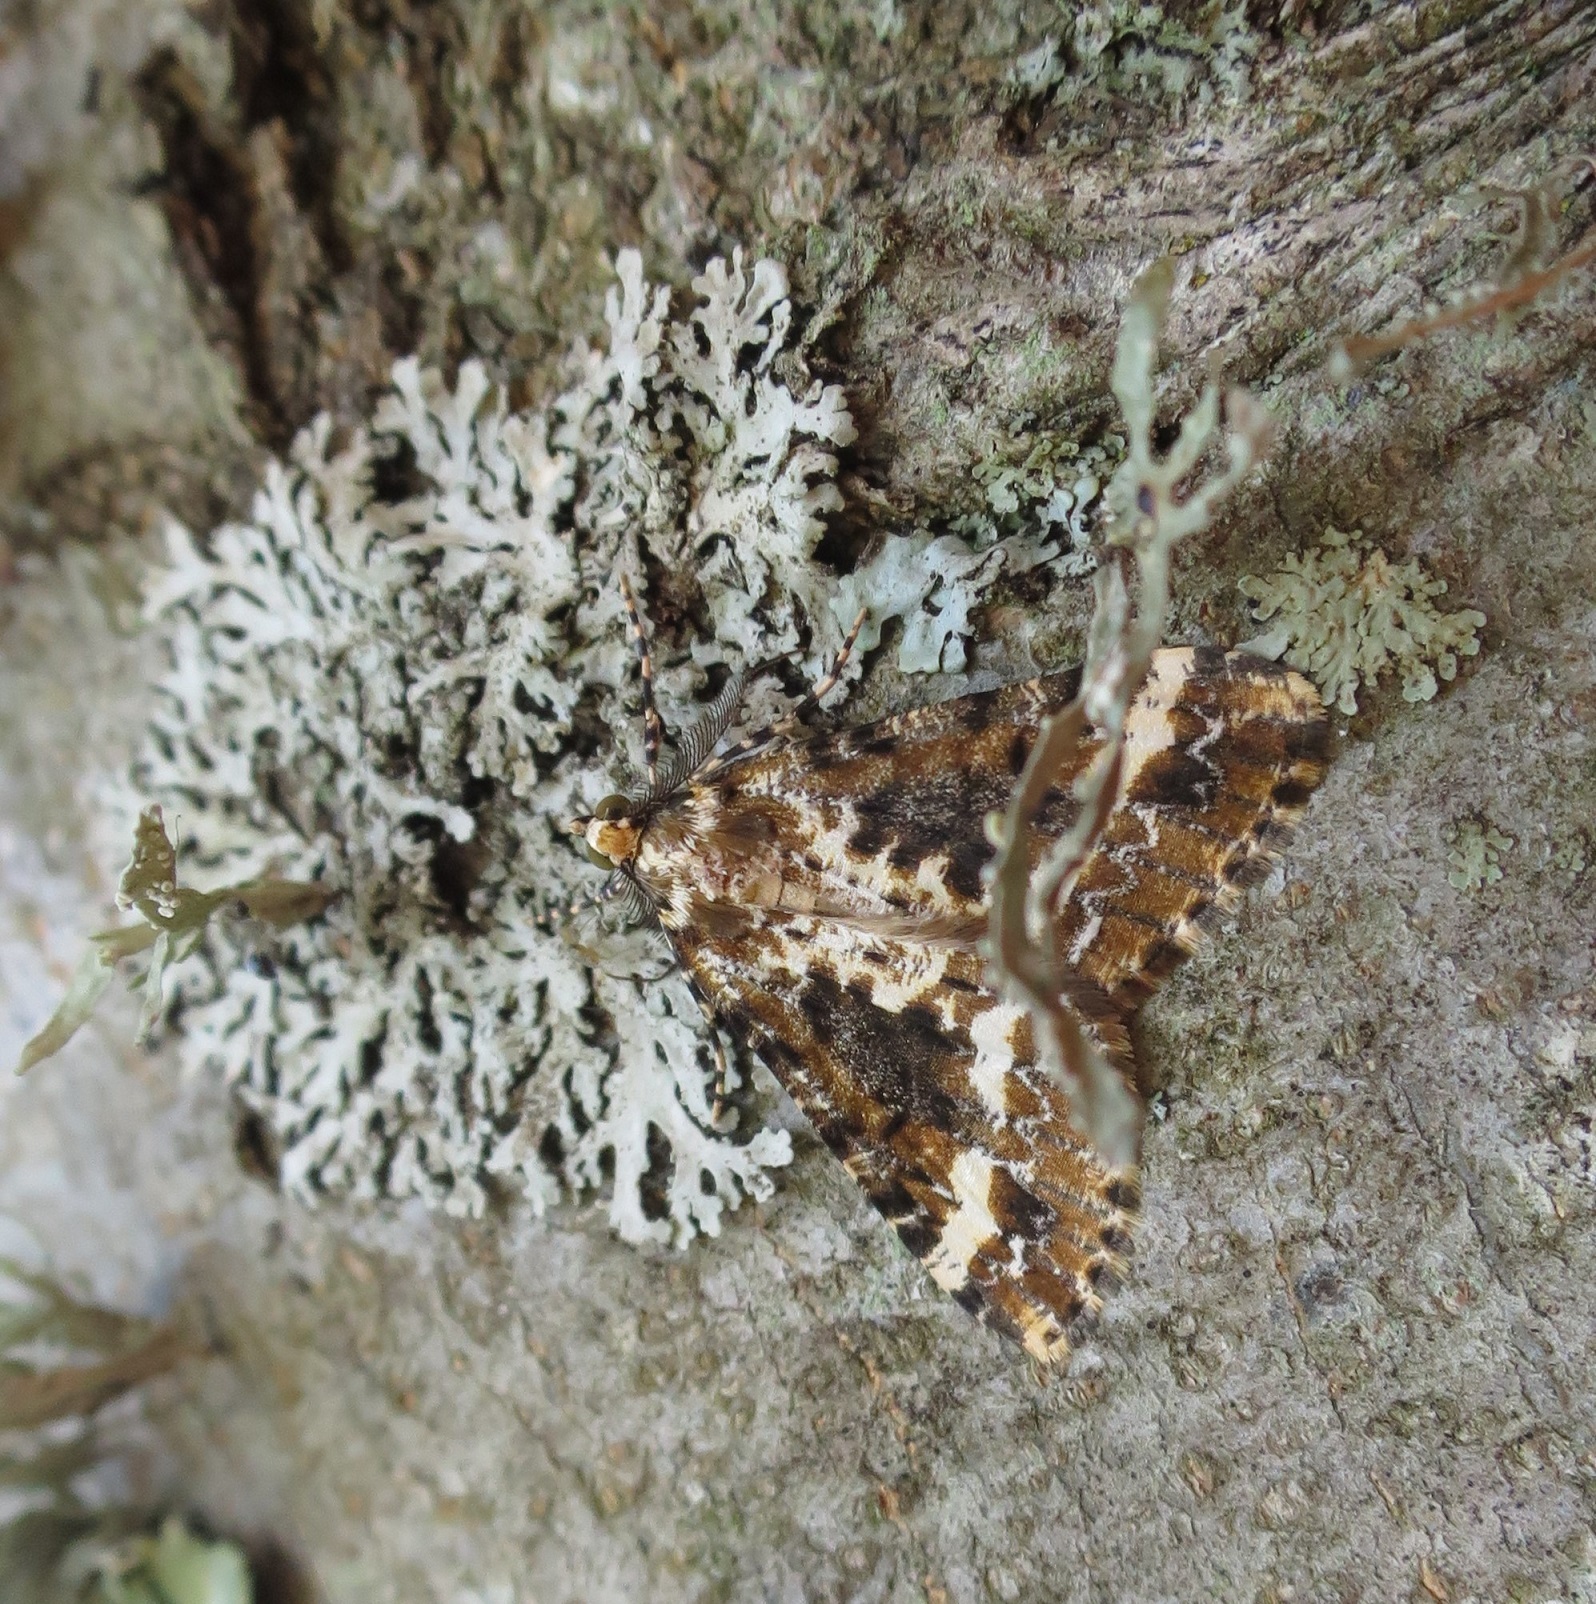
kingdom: Animalia
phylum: Arthropoda
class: Insecta
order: Lepidoptera
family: Geometridae
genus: Pseudocoremia
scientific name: Pseudocoremia leucelaea
